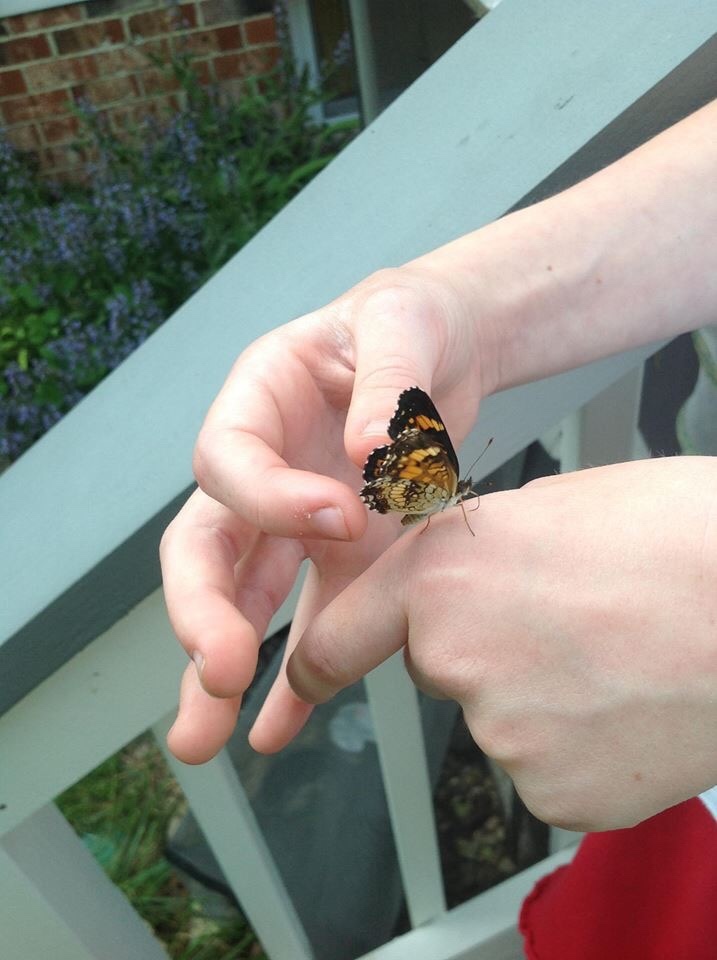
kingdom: Animalia
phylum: Arthropoda
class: Insecta
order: Lepidoptera
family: Nymphalidae
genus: Chlosyne
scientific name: Chlosyne nycteis
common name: Silvery checkerspot
